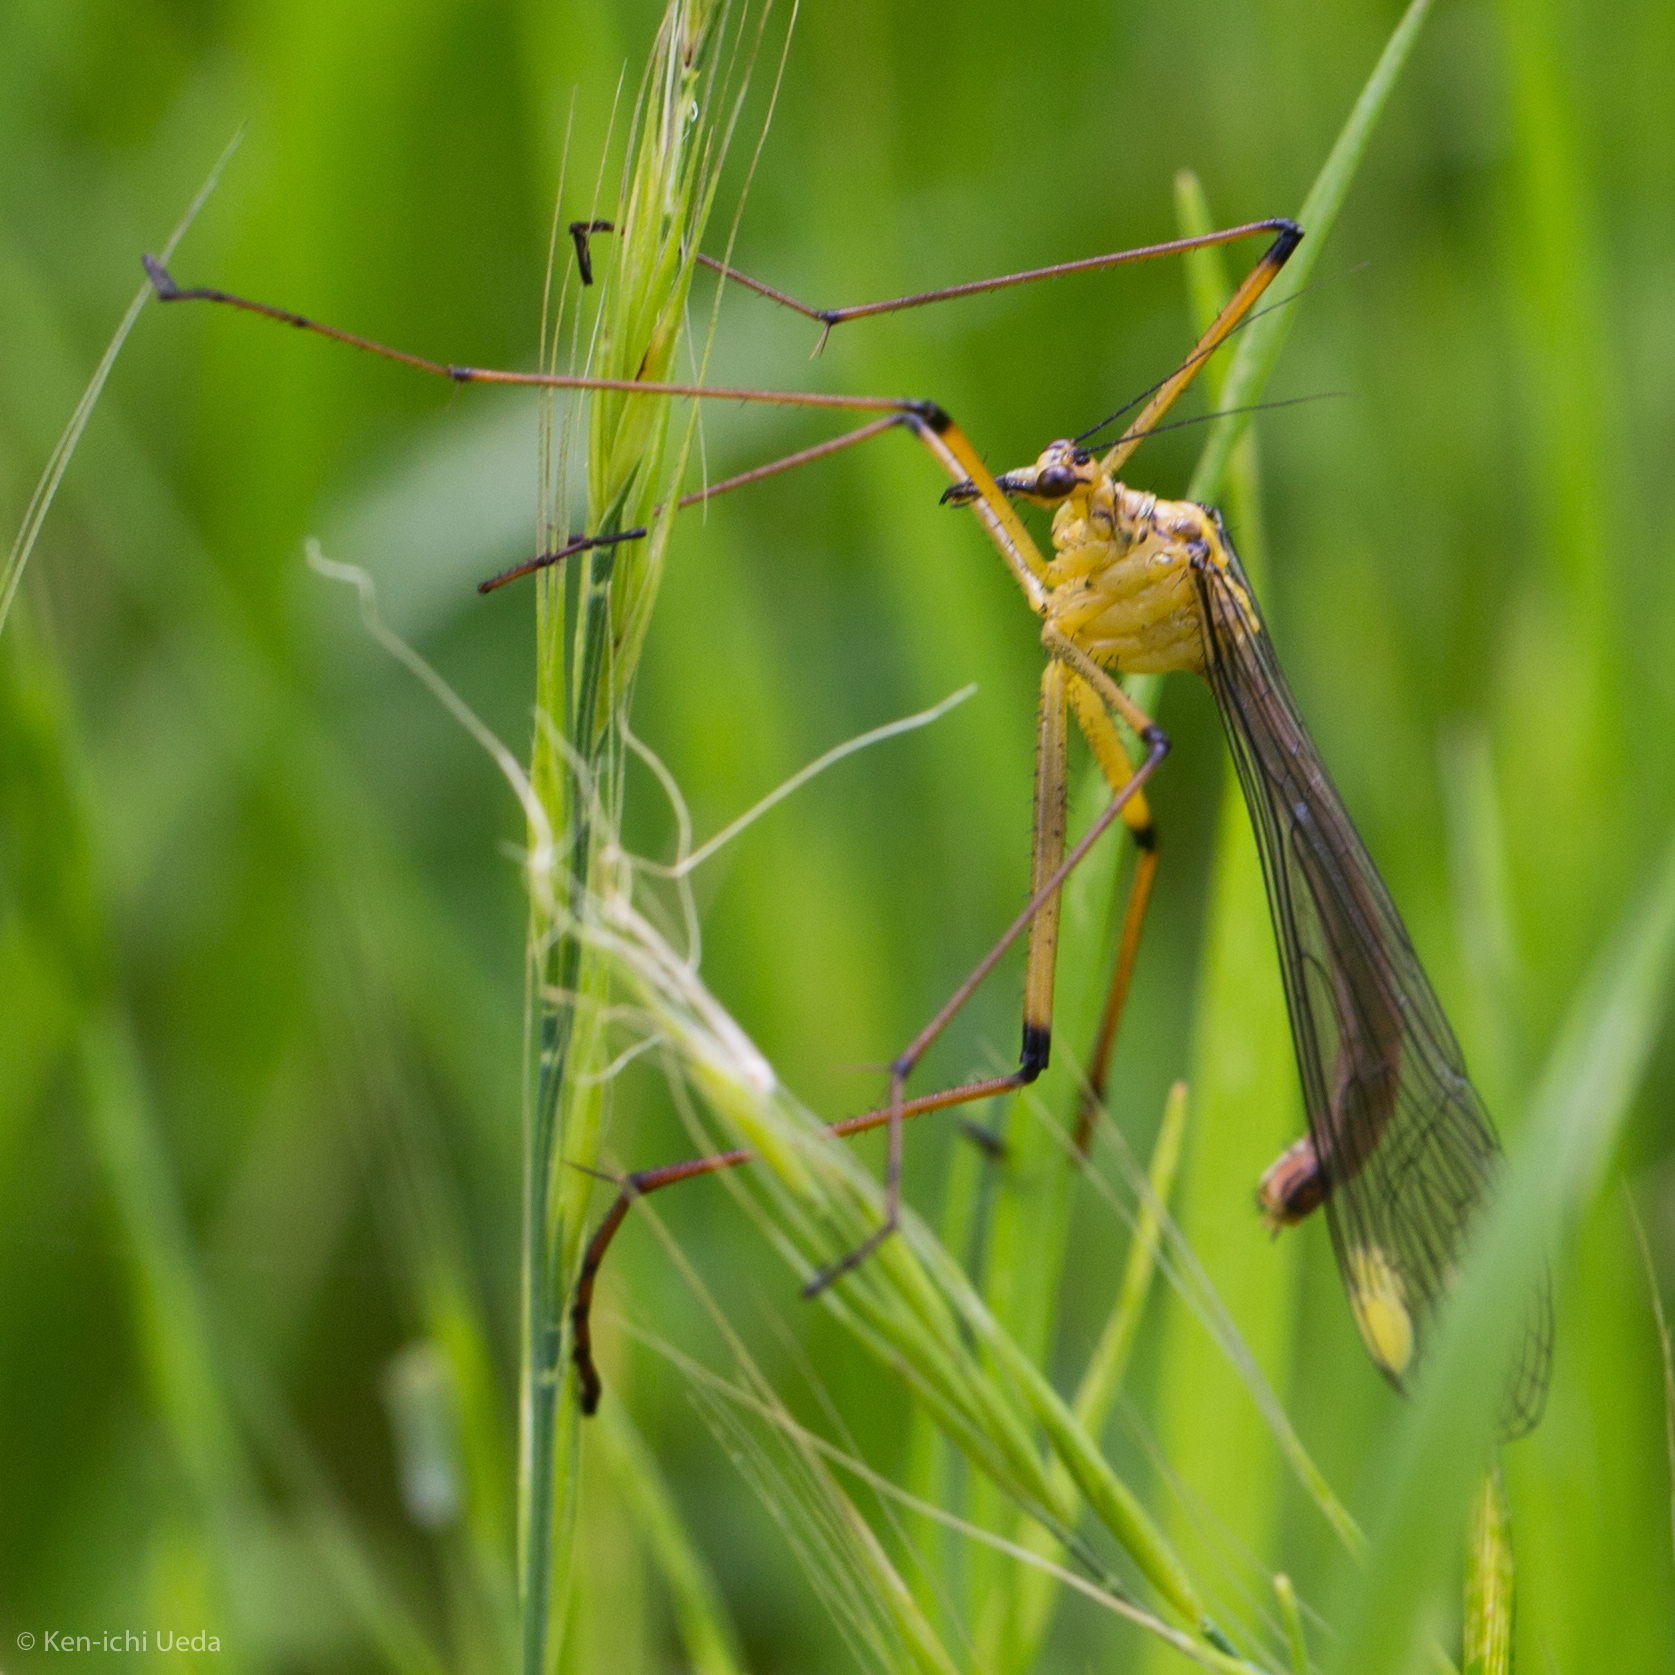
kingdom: Animalia
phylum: Arthropoda
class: Insecta
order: Mecoptera
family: Bittacidae
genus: Bittacus
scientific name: Bittacus chlorostigma
